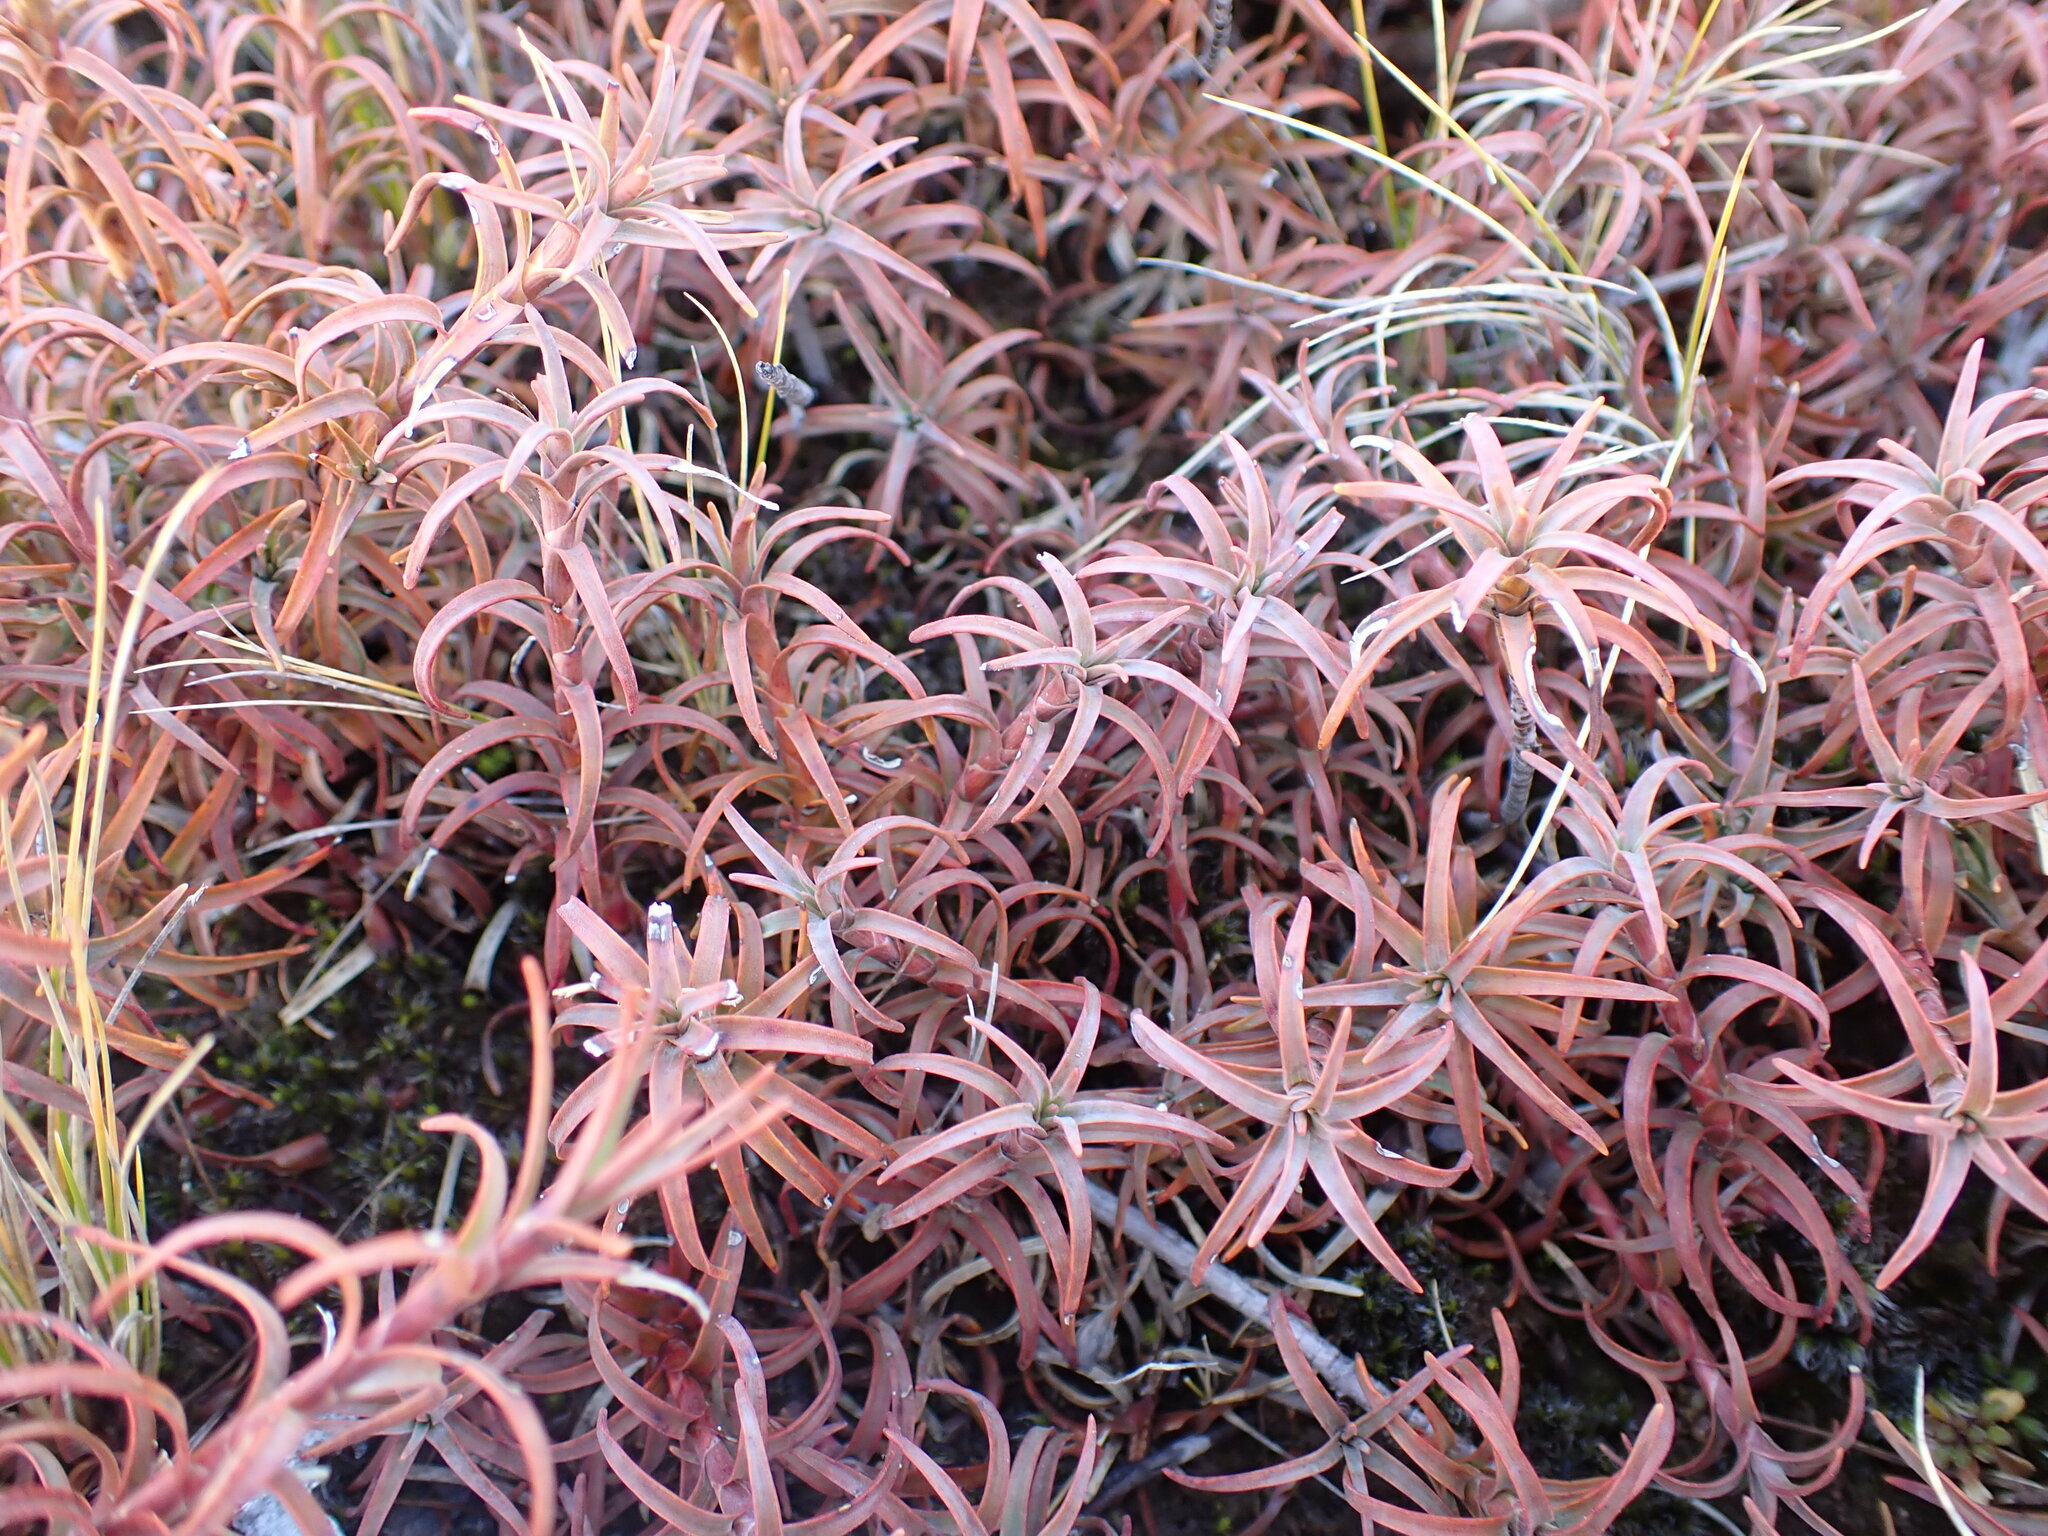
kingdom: Plantae
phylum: Tracheophyta
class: Magnoliopsida
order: Ericales
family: Ericaceae
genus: Dracophyllum
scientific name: Dracophyllum recurvum
